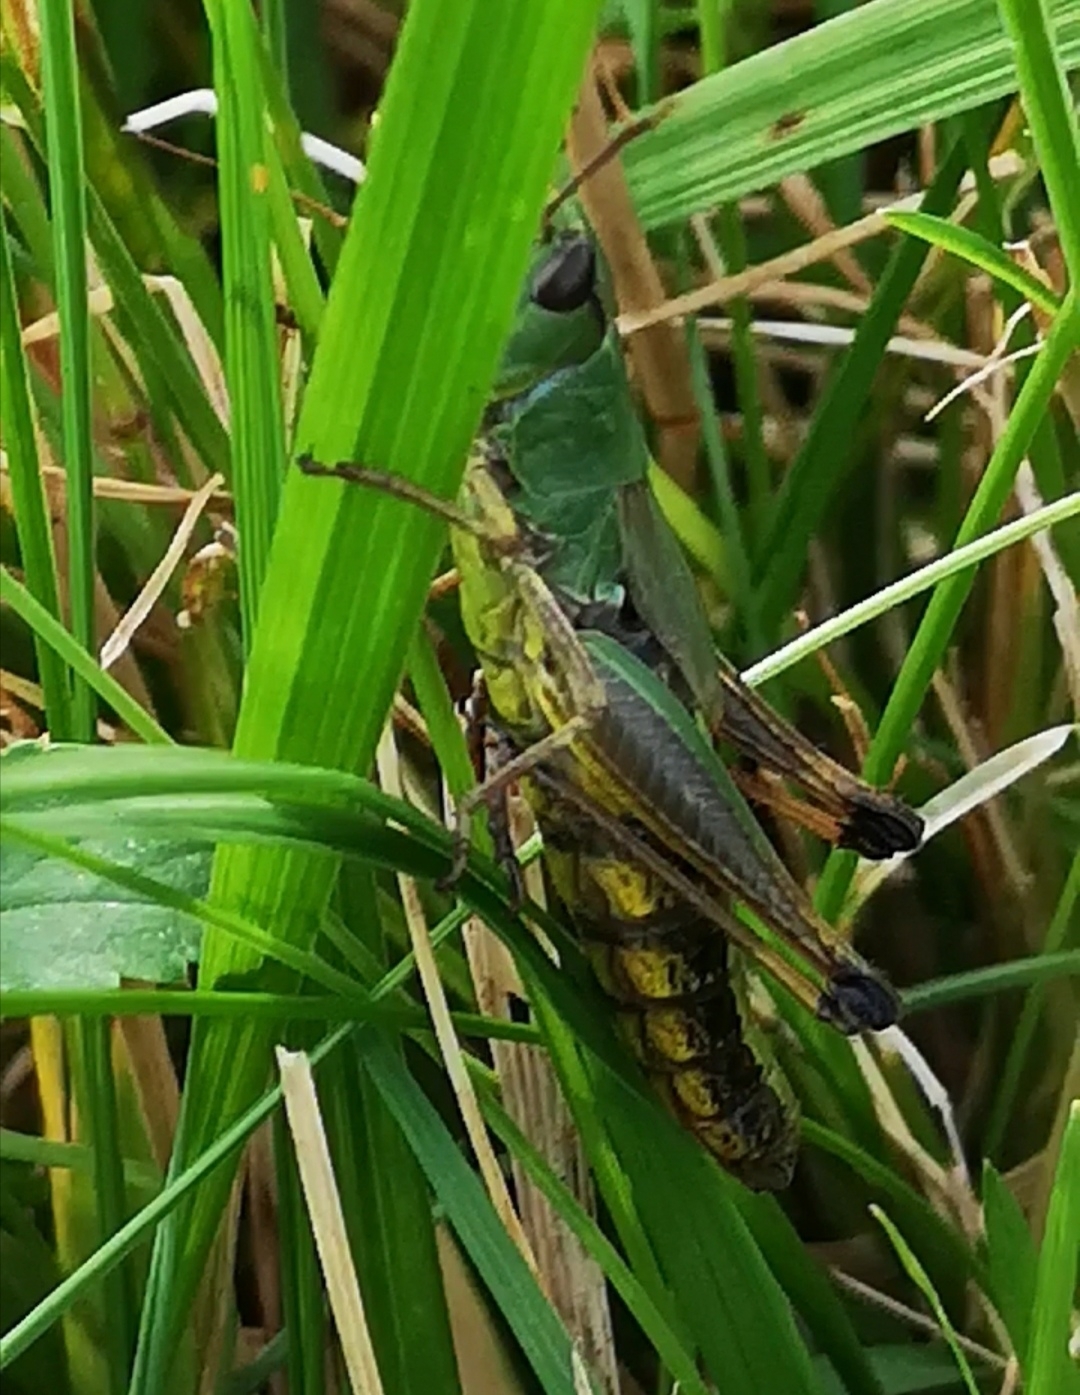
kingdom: Animalia
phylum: Arthropoda
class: Insecta
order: Orthoptera
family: Acrididae
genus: Pseudochorthippus
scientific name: Pseudochorthippus parallelus
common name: Meadow grasshopper
